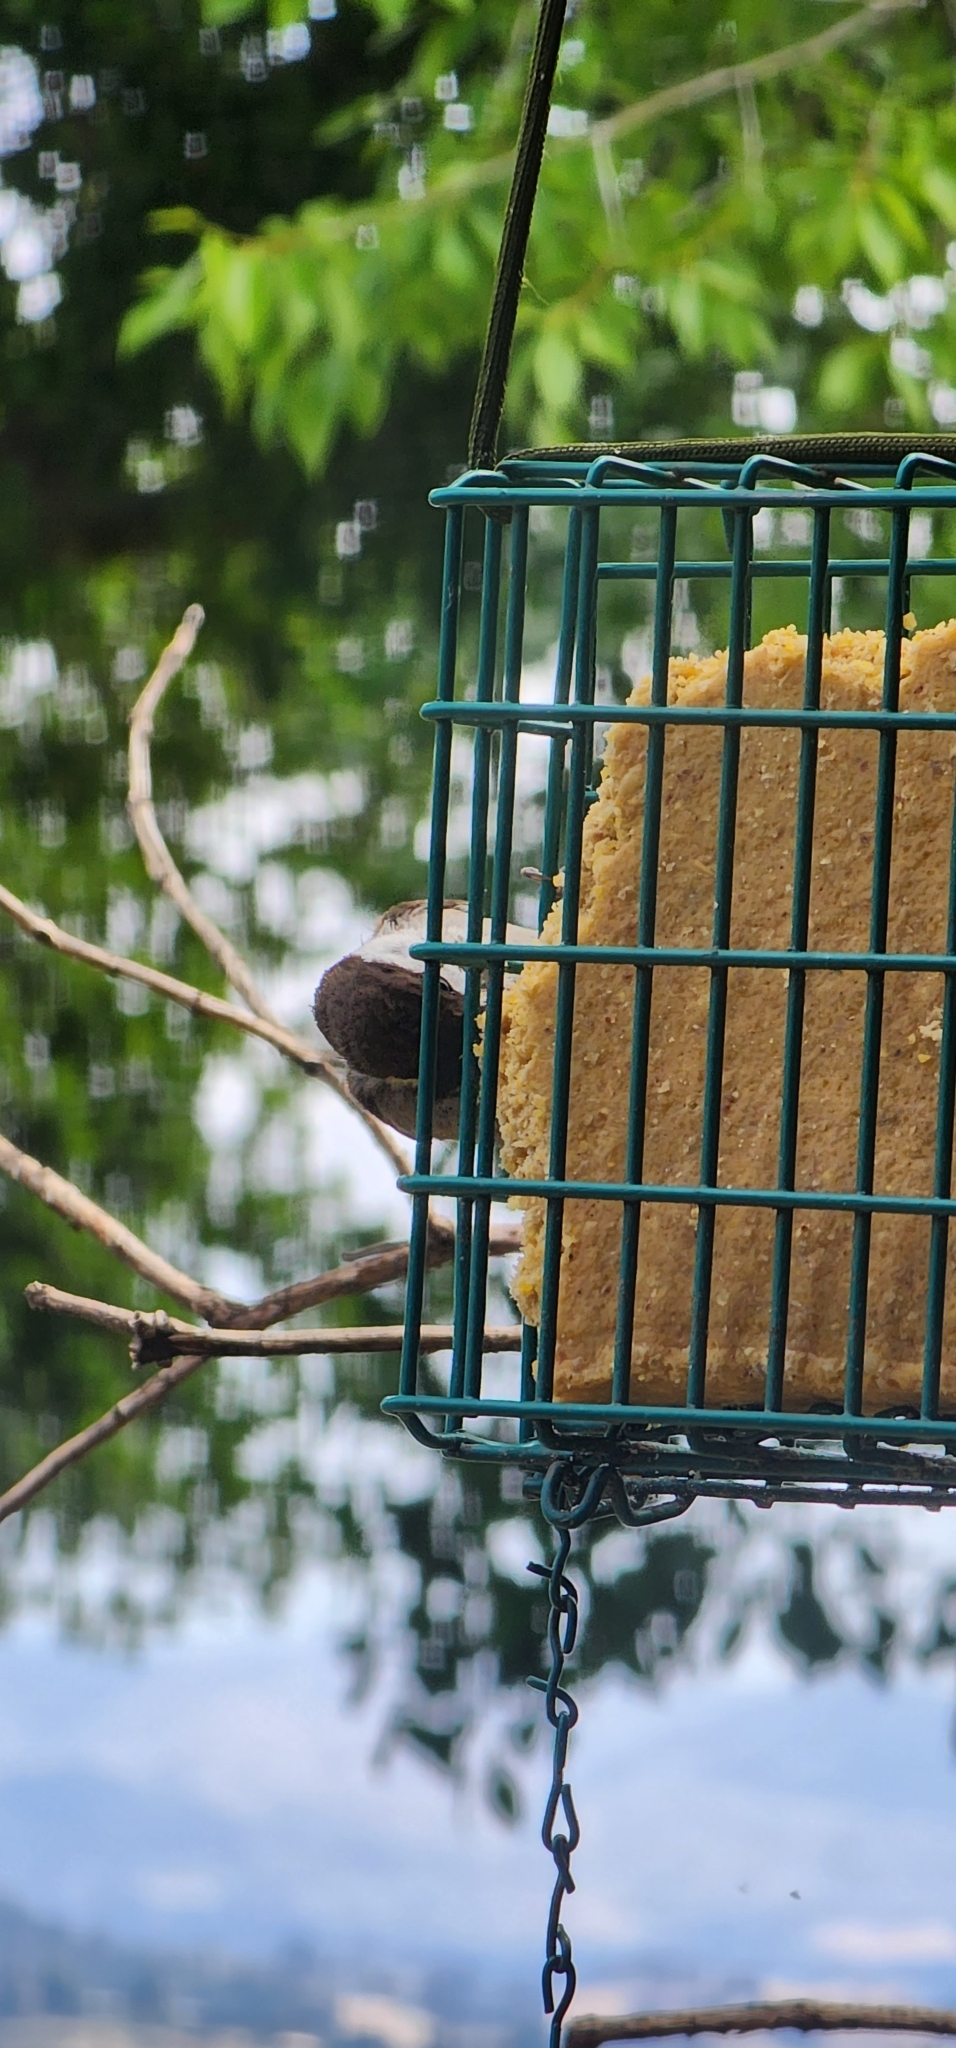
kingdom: Animalia
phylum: Chordata
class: Aves
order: Passeriformes
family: Paridae
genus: Poecile
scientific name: Poecile rufescens
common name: Chestnut-backed chickadee
